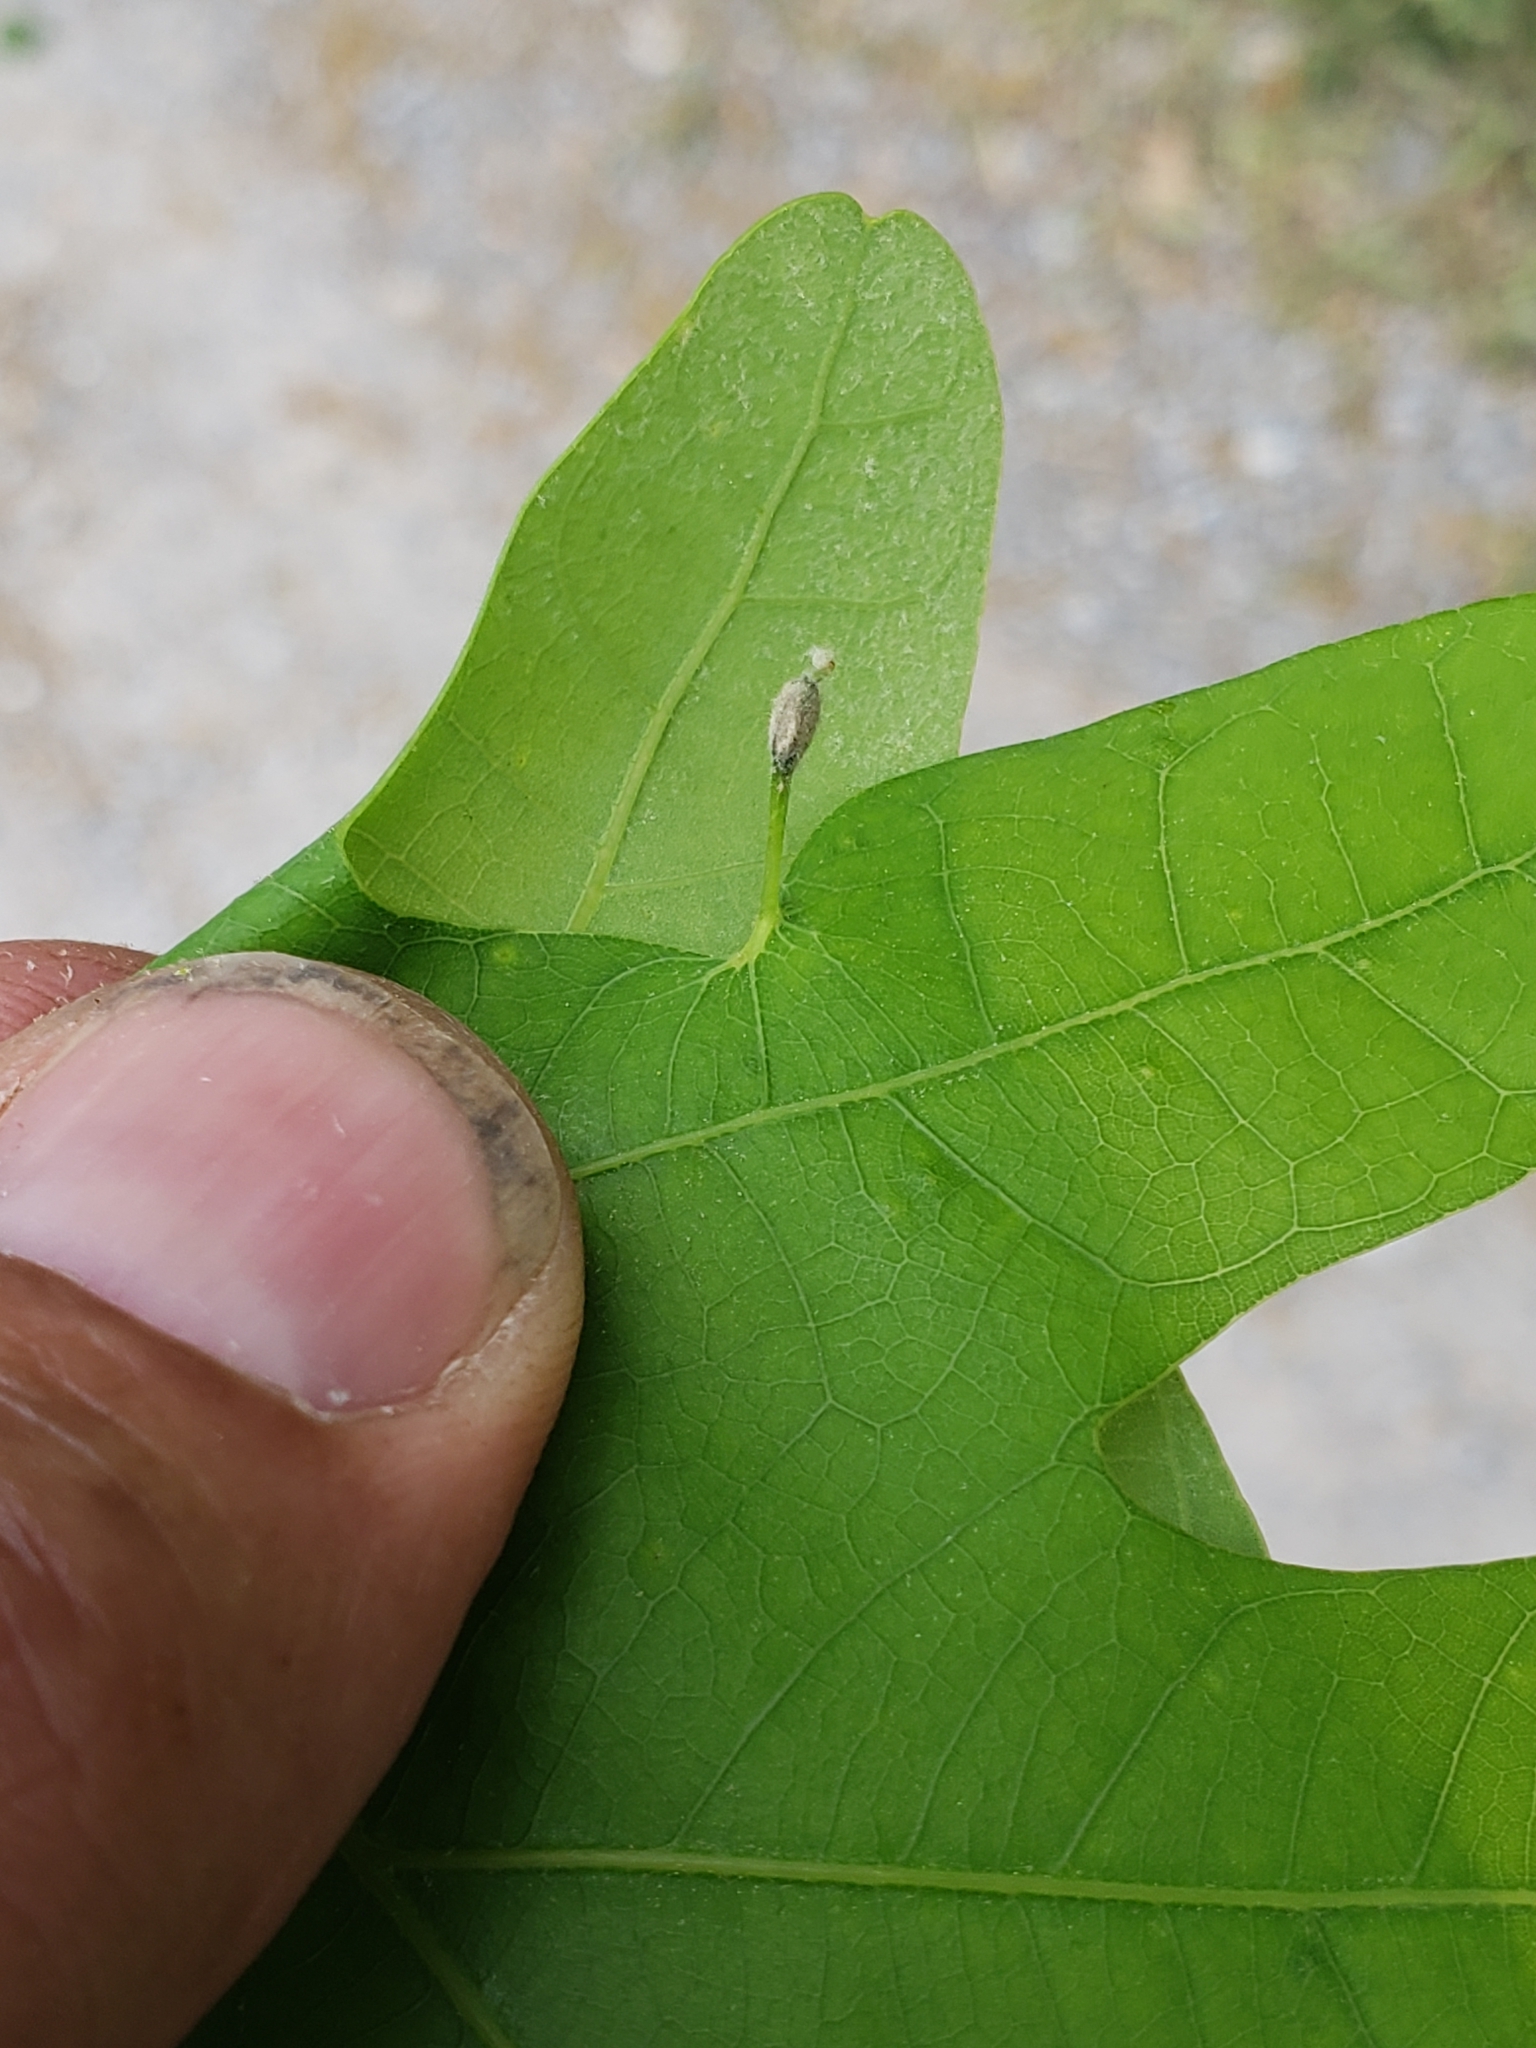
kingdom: Animalia
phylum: Arthropoda
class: Insecta
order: Hymenoptera
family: Cynipidae
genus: Andricus
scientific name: Andricus
